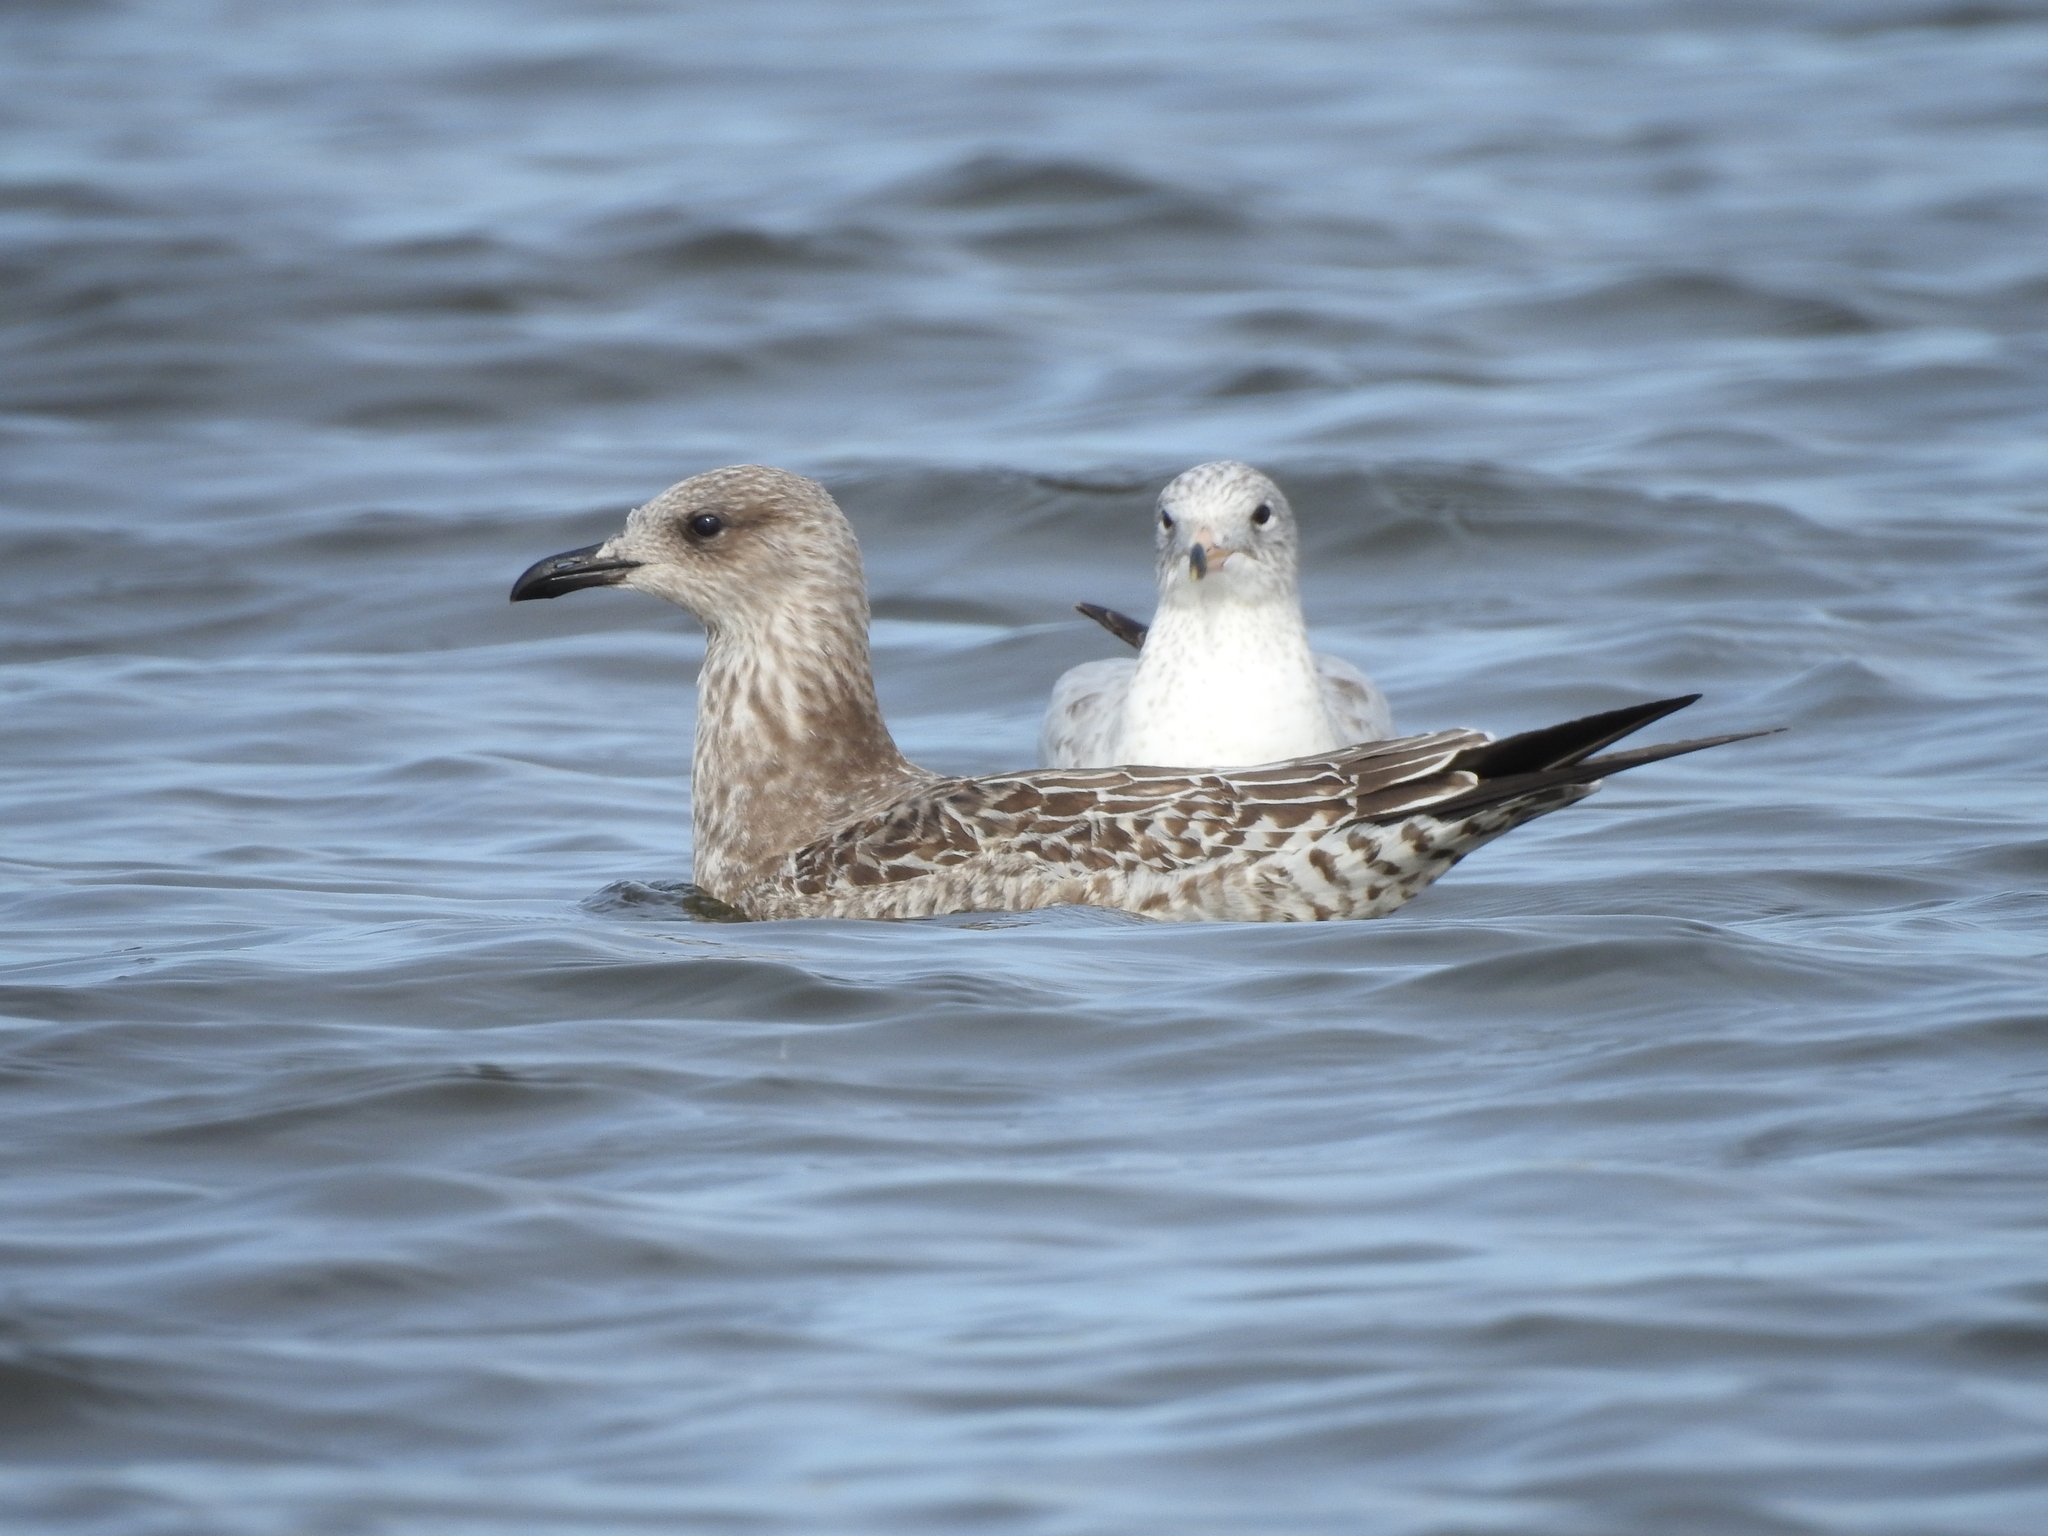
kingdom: Animalia
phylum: Chordata
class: Aves
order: Charadriiformes
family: Laridae
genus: Larus
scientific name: Larus fuscus
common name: Lesser black-backed gull
